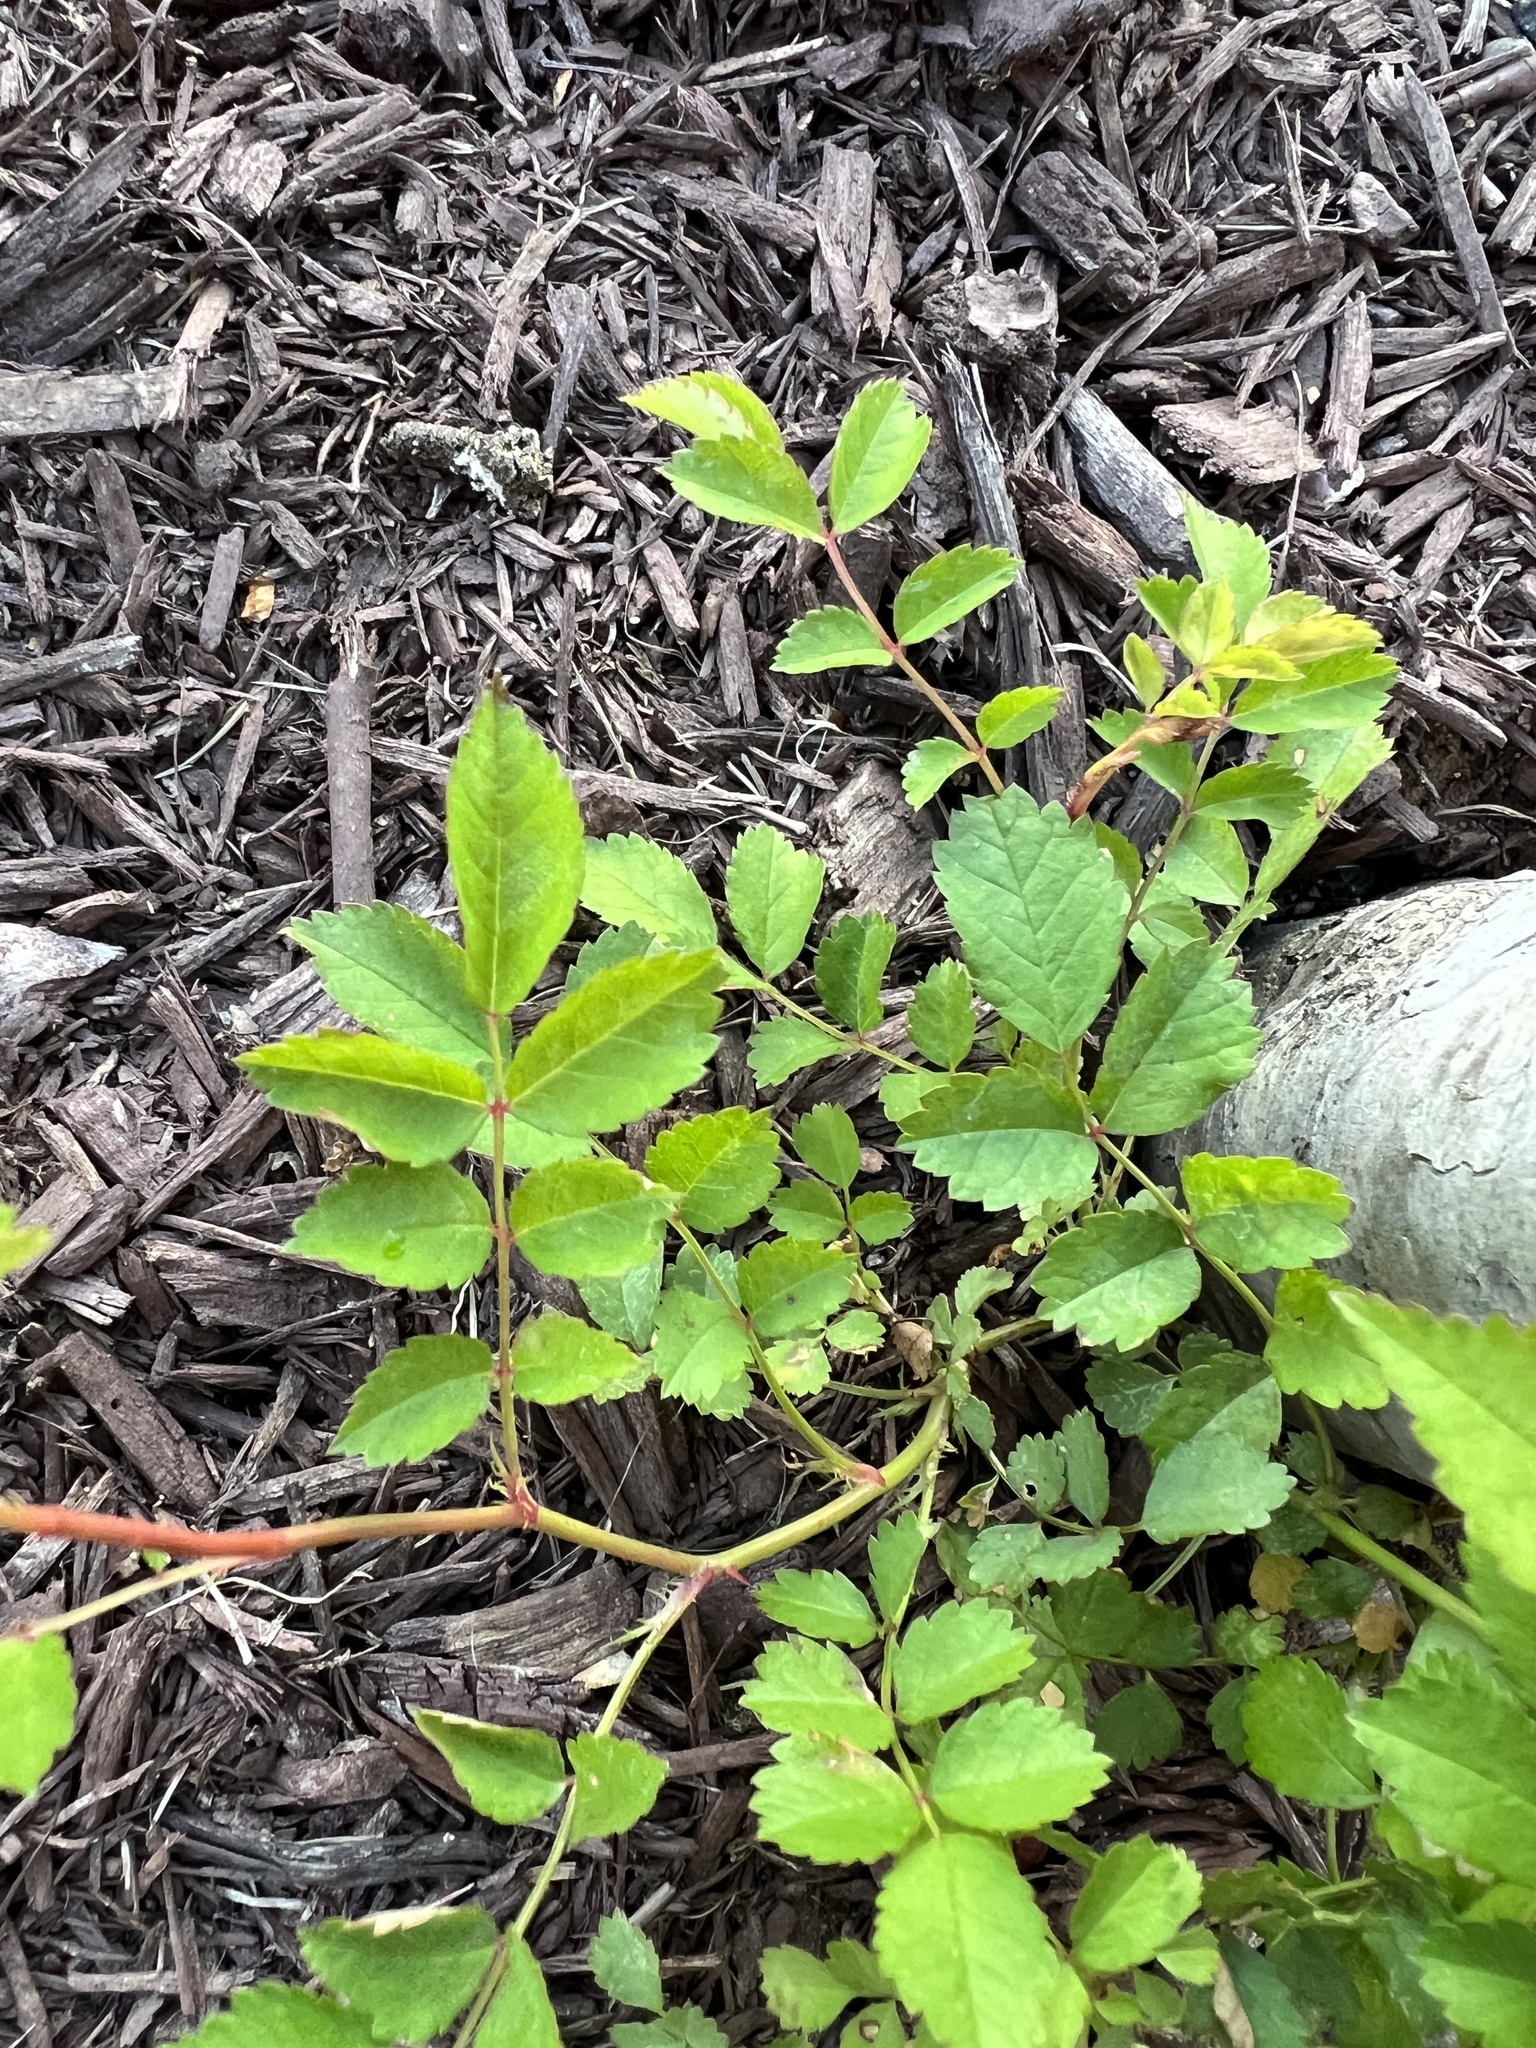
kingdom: Plantae
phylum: Tracheophyta
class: Magnoliopsida
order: Rosales
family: Rosaceae
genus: Rosa
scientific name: Rosa multiflora
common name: Multiflora rose
